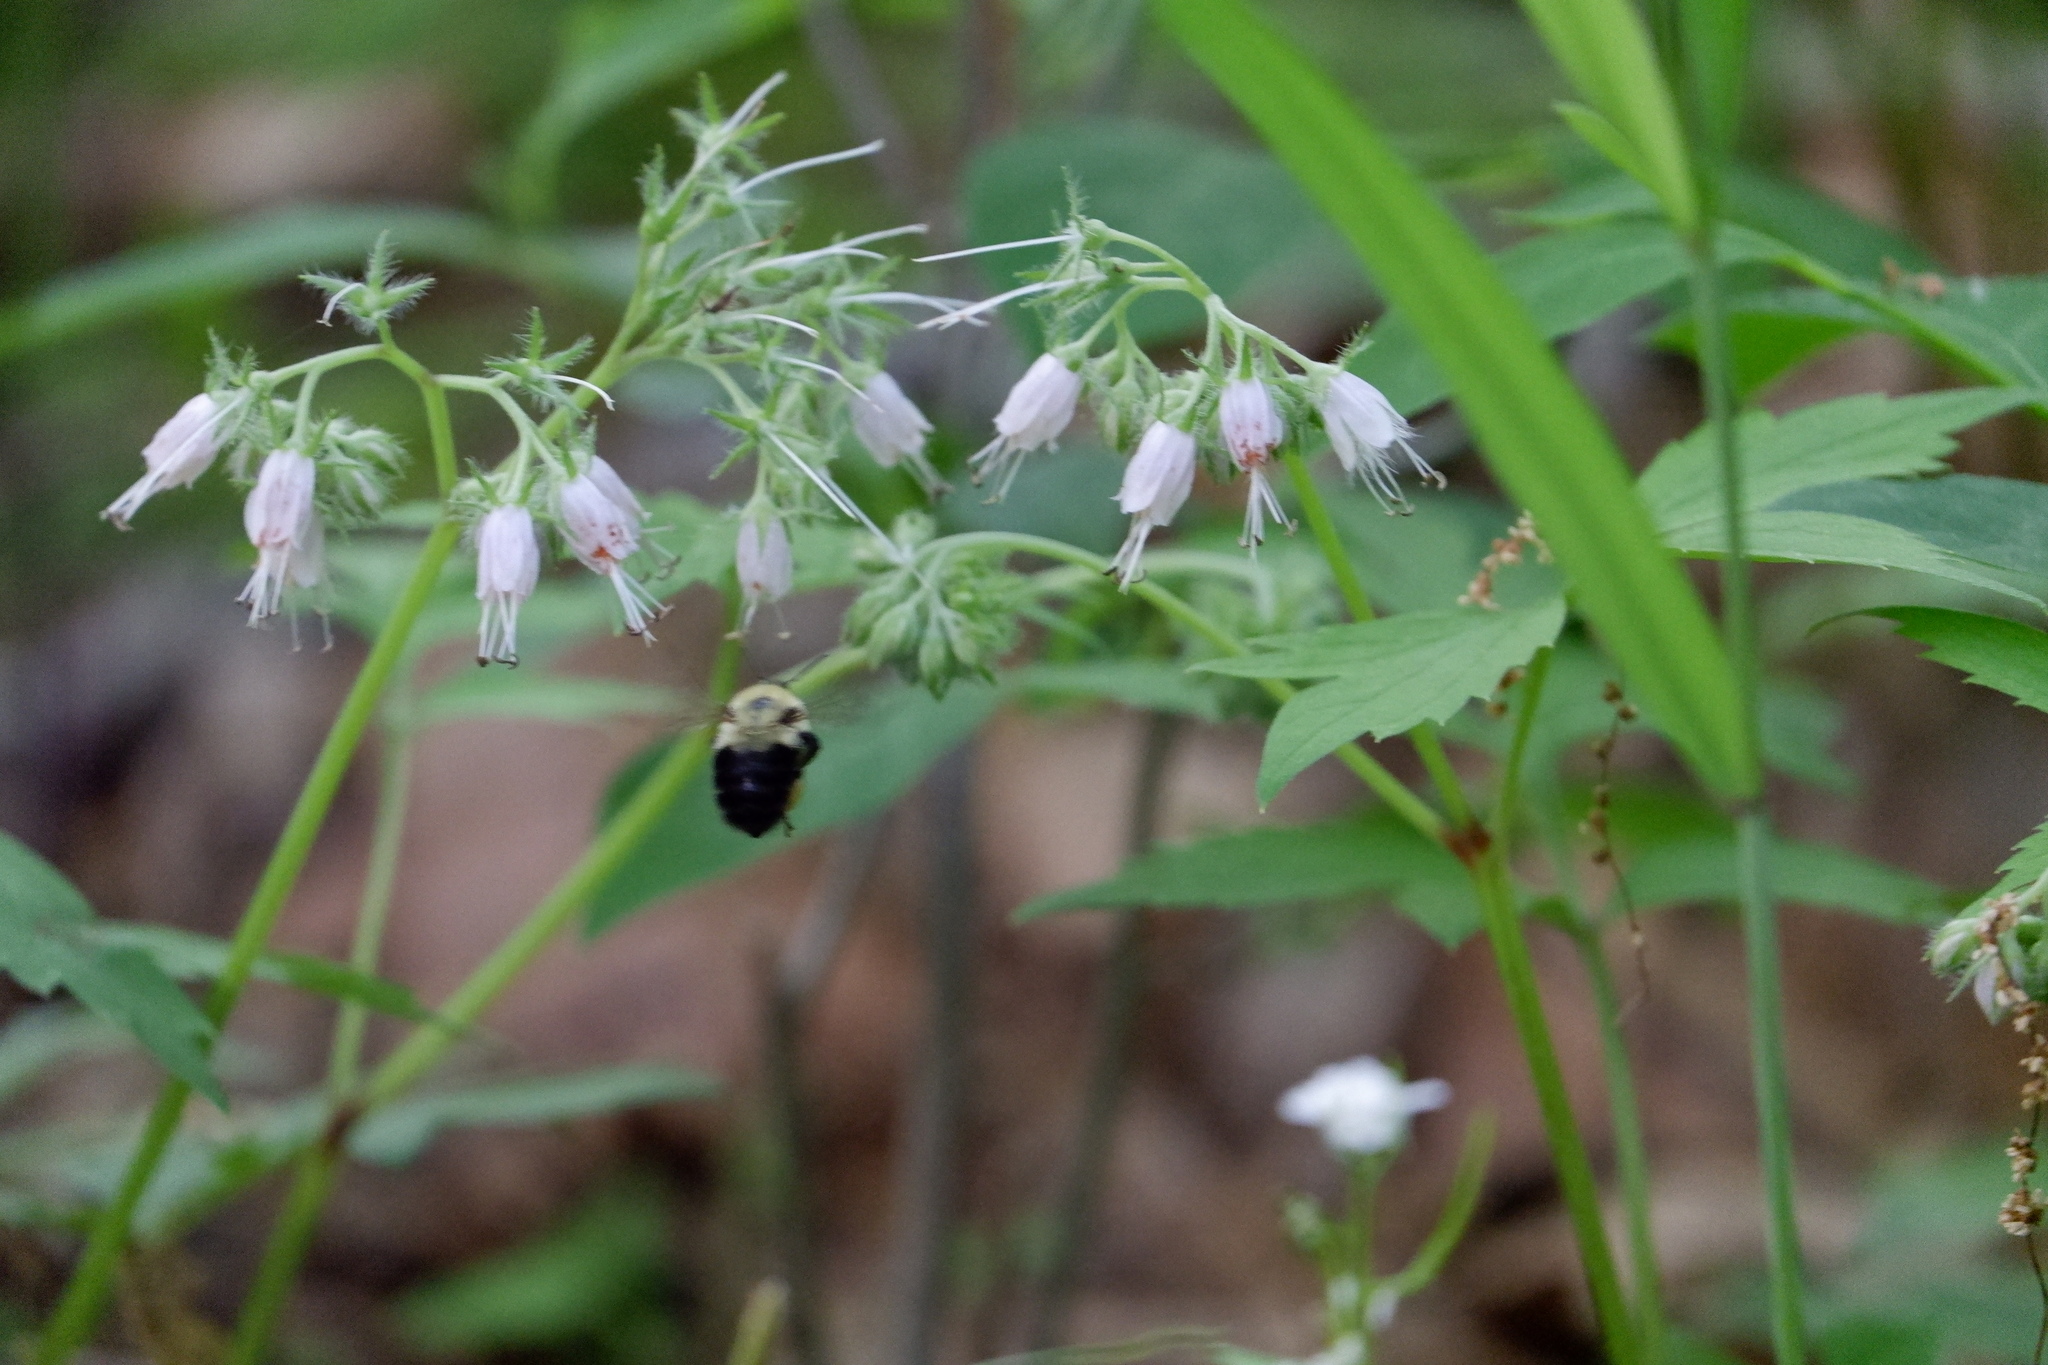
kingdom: Animalia
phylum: Arthropoda
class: Insecta
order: Hymenoptera
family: Apidae
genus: Bombus
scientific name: Bombus bimaculatus
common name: Two-spotted bumble bee
